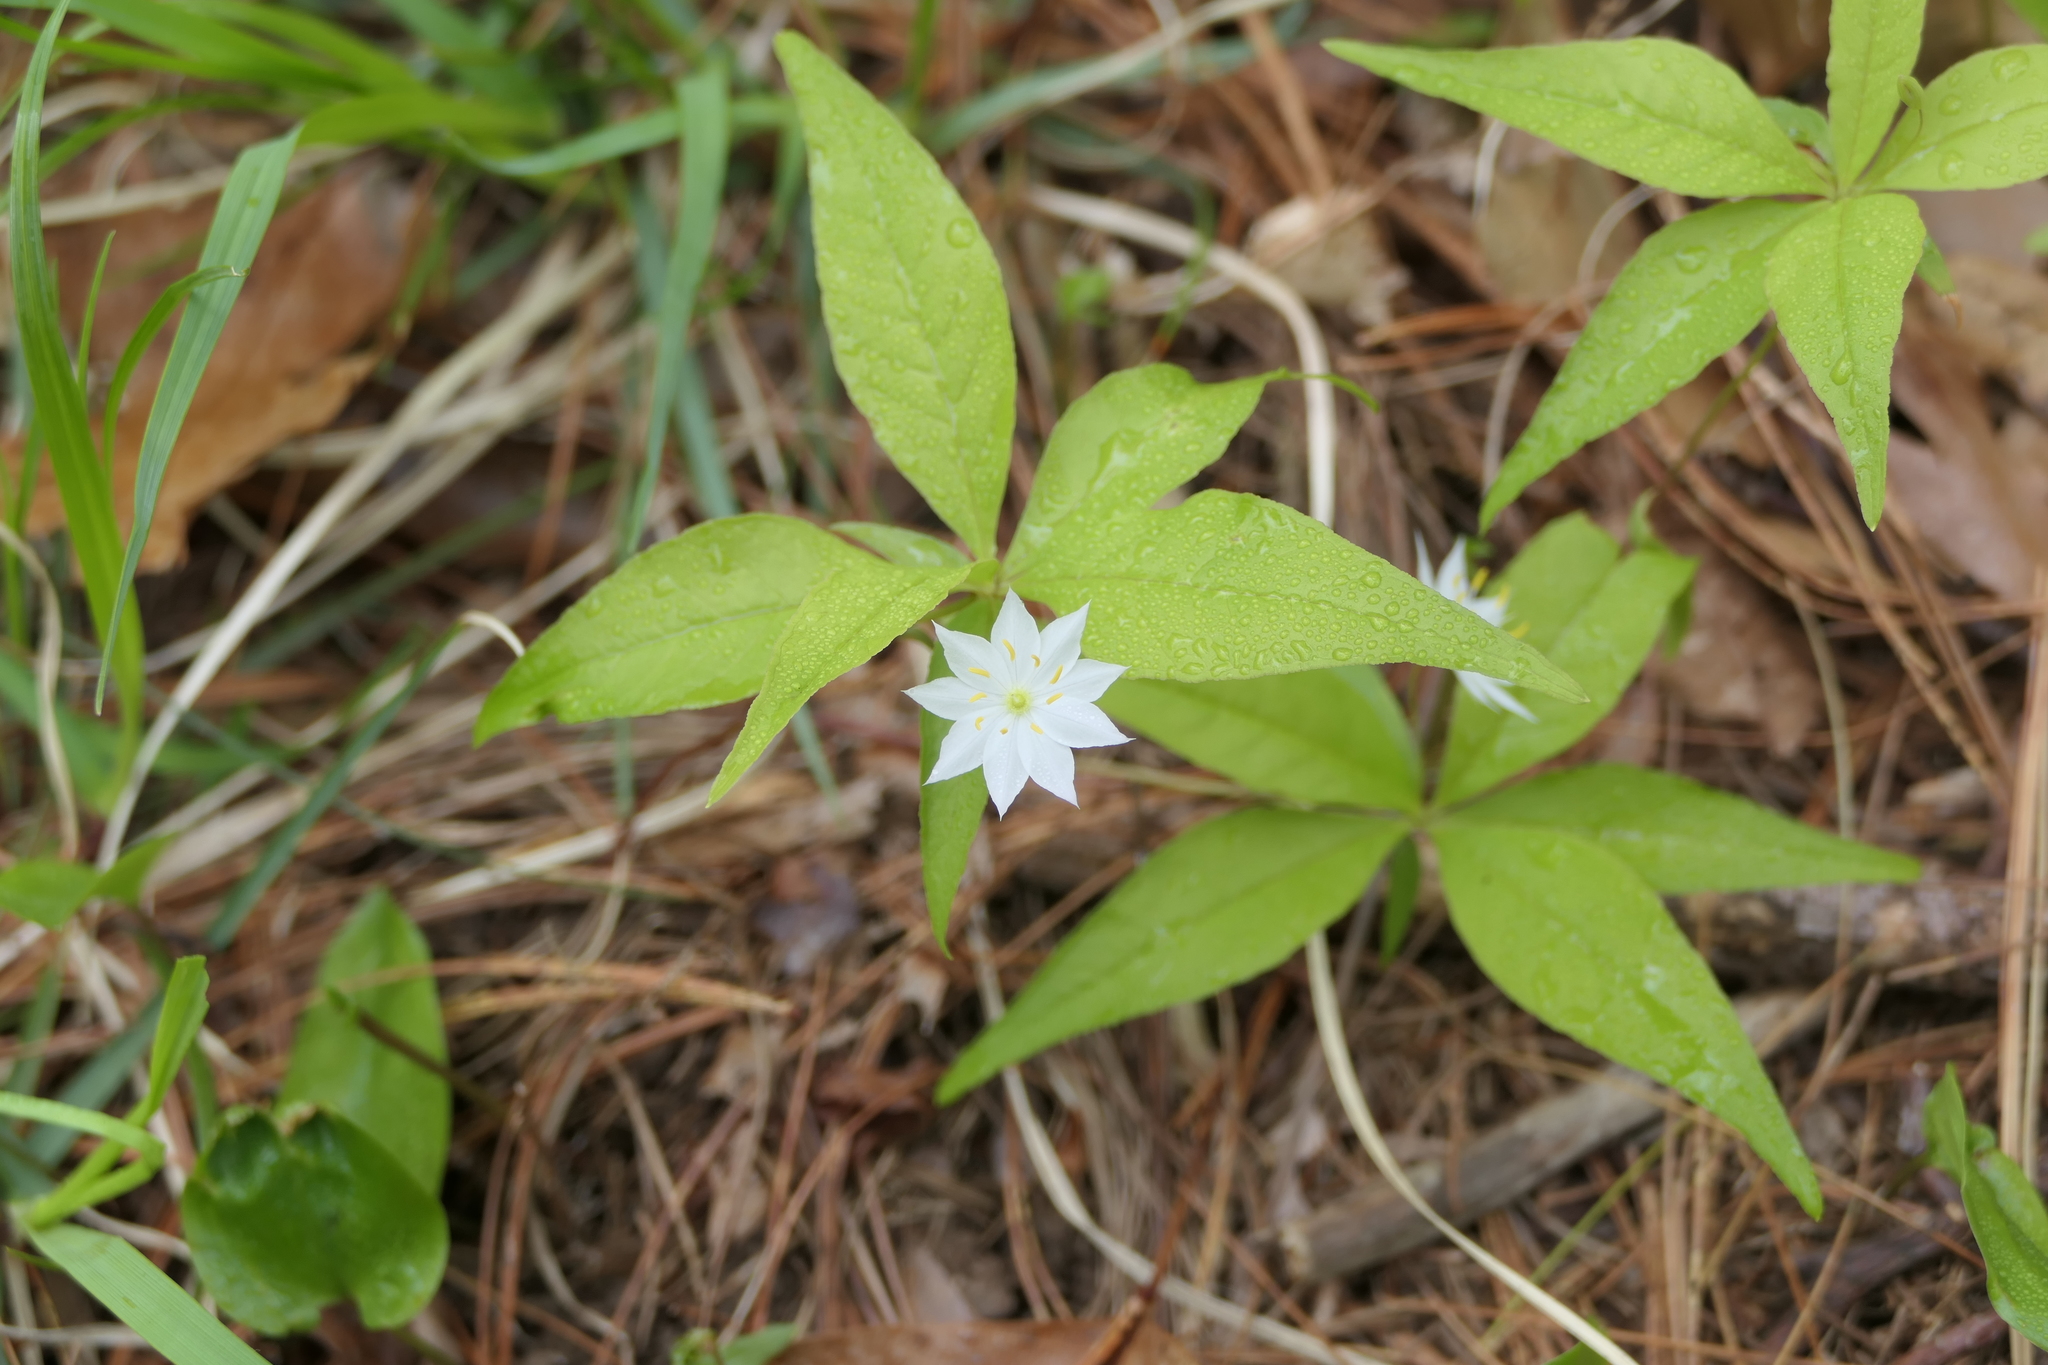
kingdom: Plantae
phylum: Tracheophyta
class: Magnoliopsida
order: Ericales
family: Primulaceae
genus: Lysimachia
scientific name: Lysimachia borealis
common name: American starflower
